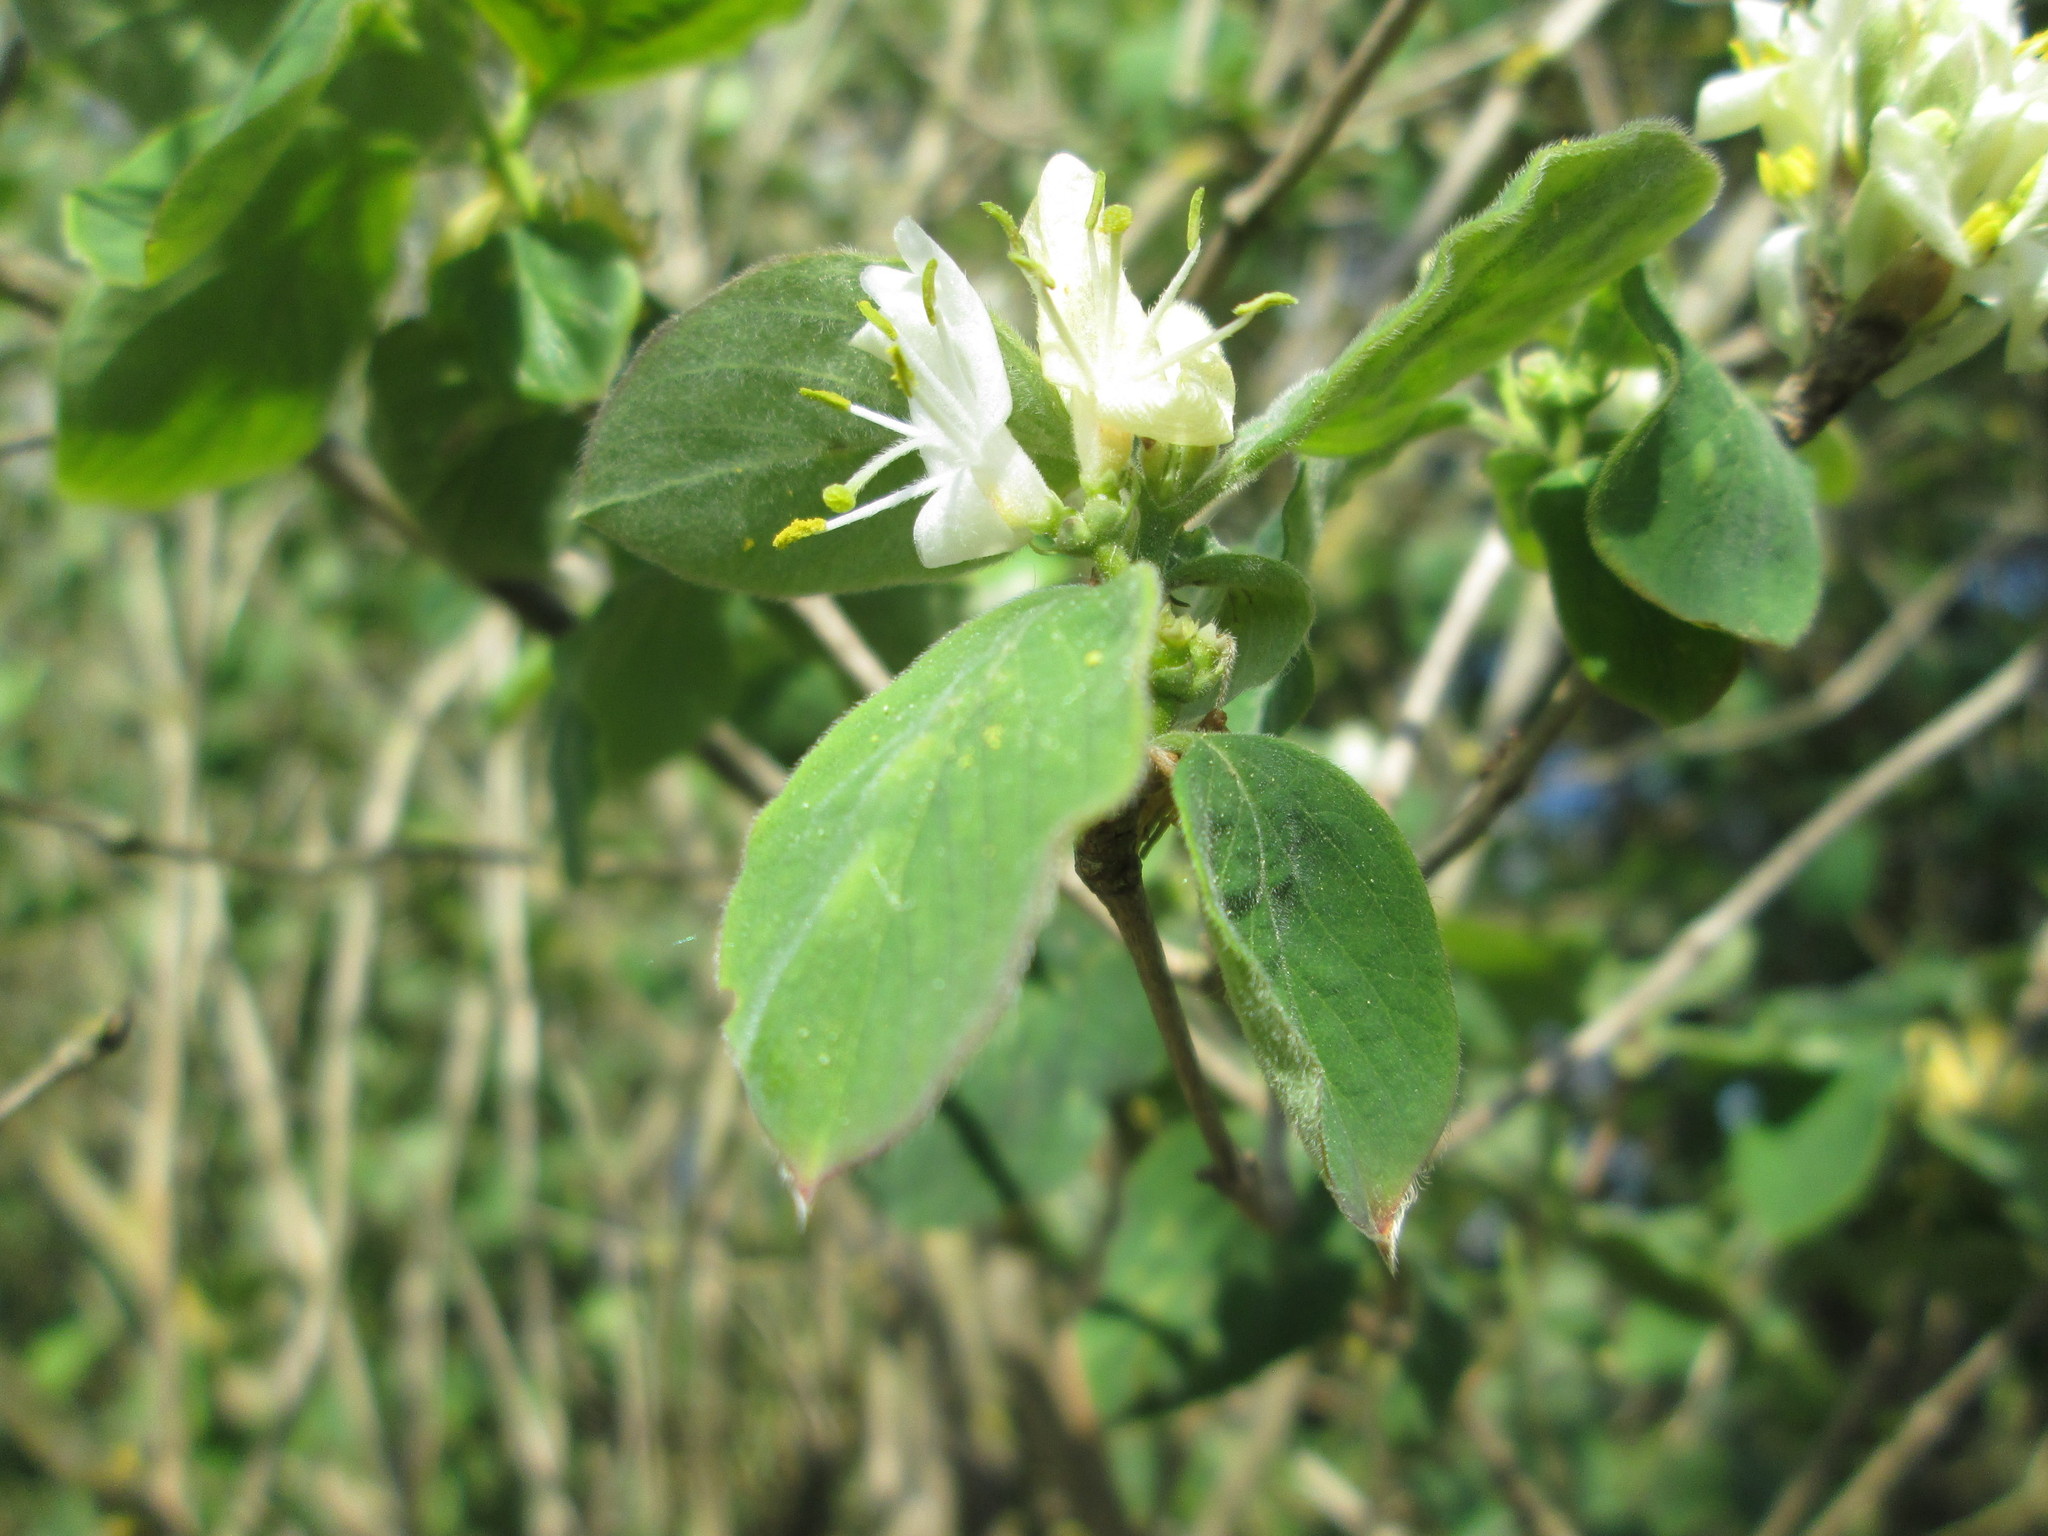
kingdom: Plantae
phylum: Tracheophyta
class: Magnoliopsida
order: Dipsacales
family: Caprifoliaceae
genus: Lonicera
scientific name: Lonicera xylosteum
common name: Fly honeysuckle
